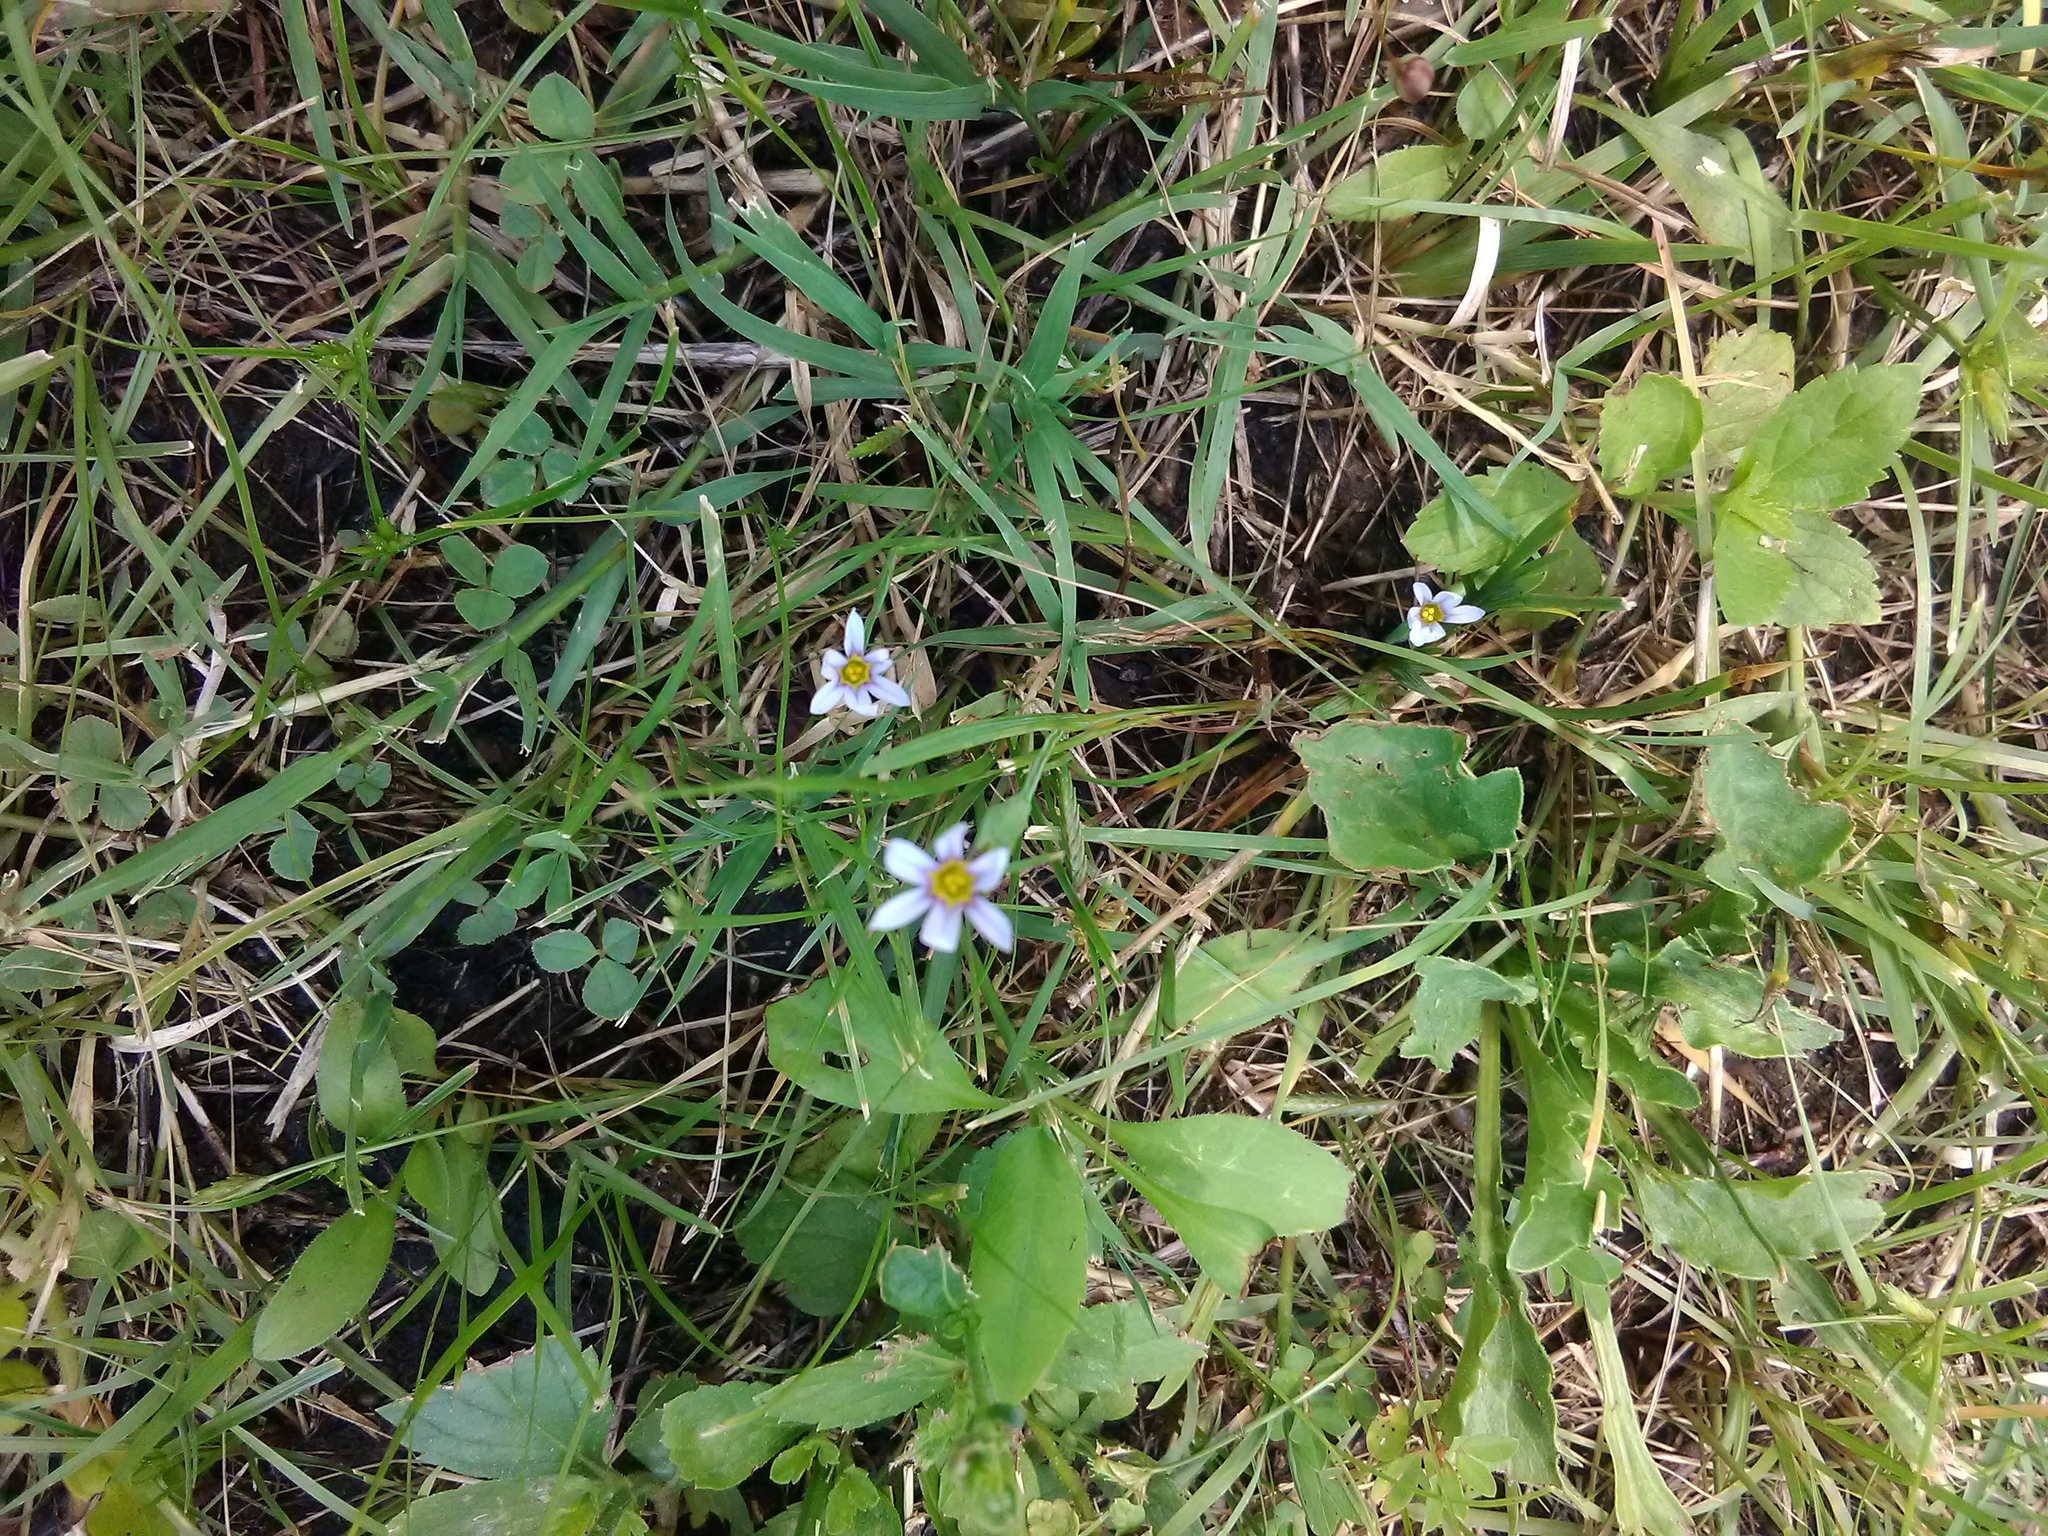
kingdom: Plantae
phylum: Tracheophyta
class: Liliopsida
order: Asparagales
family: Iridaceae
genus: Sisyrinchium
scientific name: Sisyrinchium micranthum
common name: Bermuda pigroot
